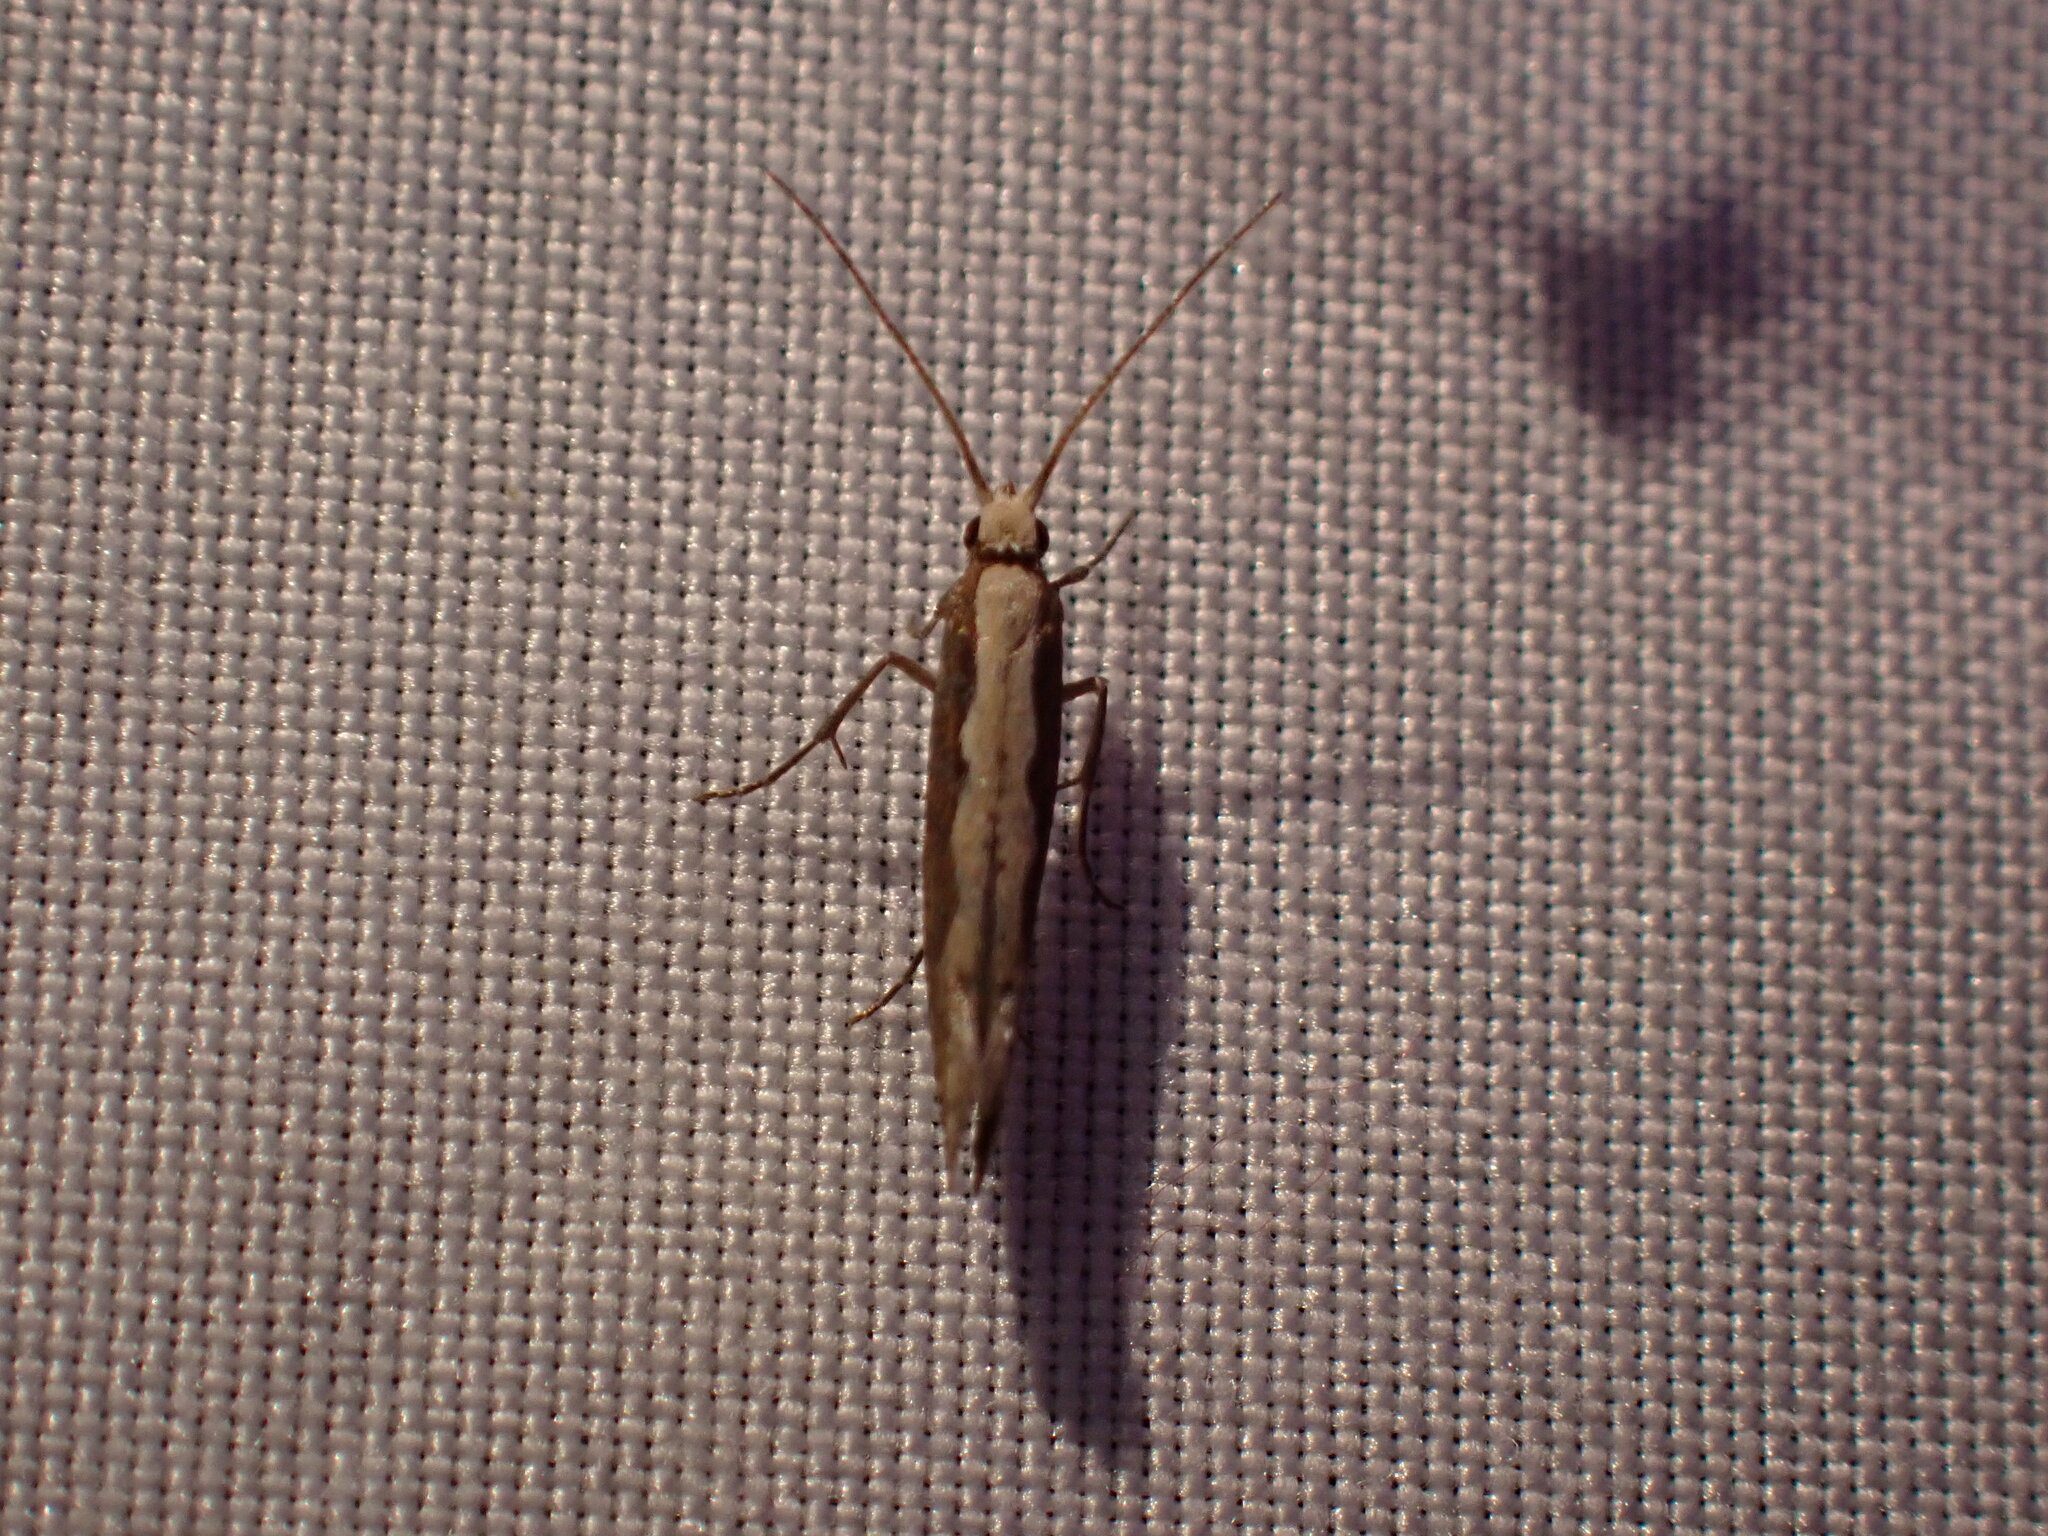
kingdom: Animalia
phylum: Arthropoda
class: Insecta
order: Lepidoptera
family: Plutellidae
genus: Plutella
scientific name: Plutella xylostella
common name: Diamond-back moth
